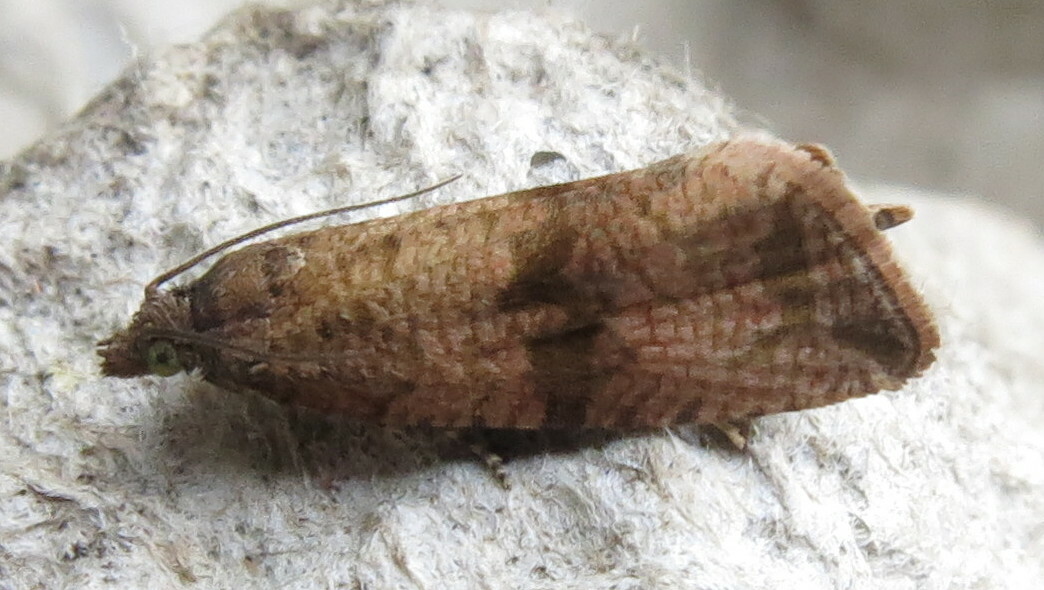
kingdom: Animalia
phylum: Arthropoda
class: Insecta
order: Lepidoptera
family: Tortricidae
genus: Celypha
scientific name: Celypha striana
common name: Barred marble
